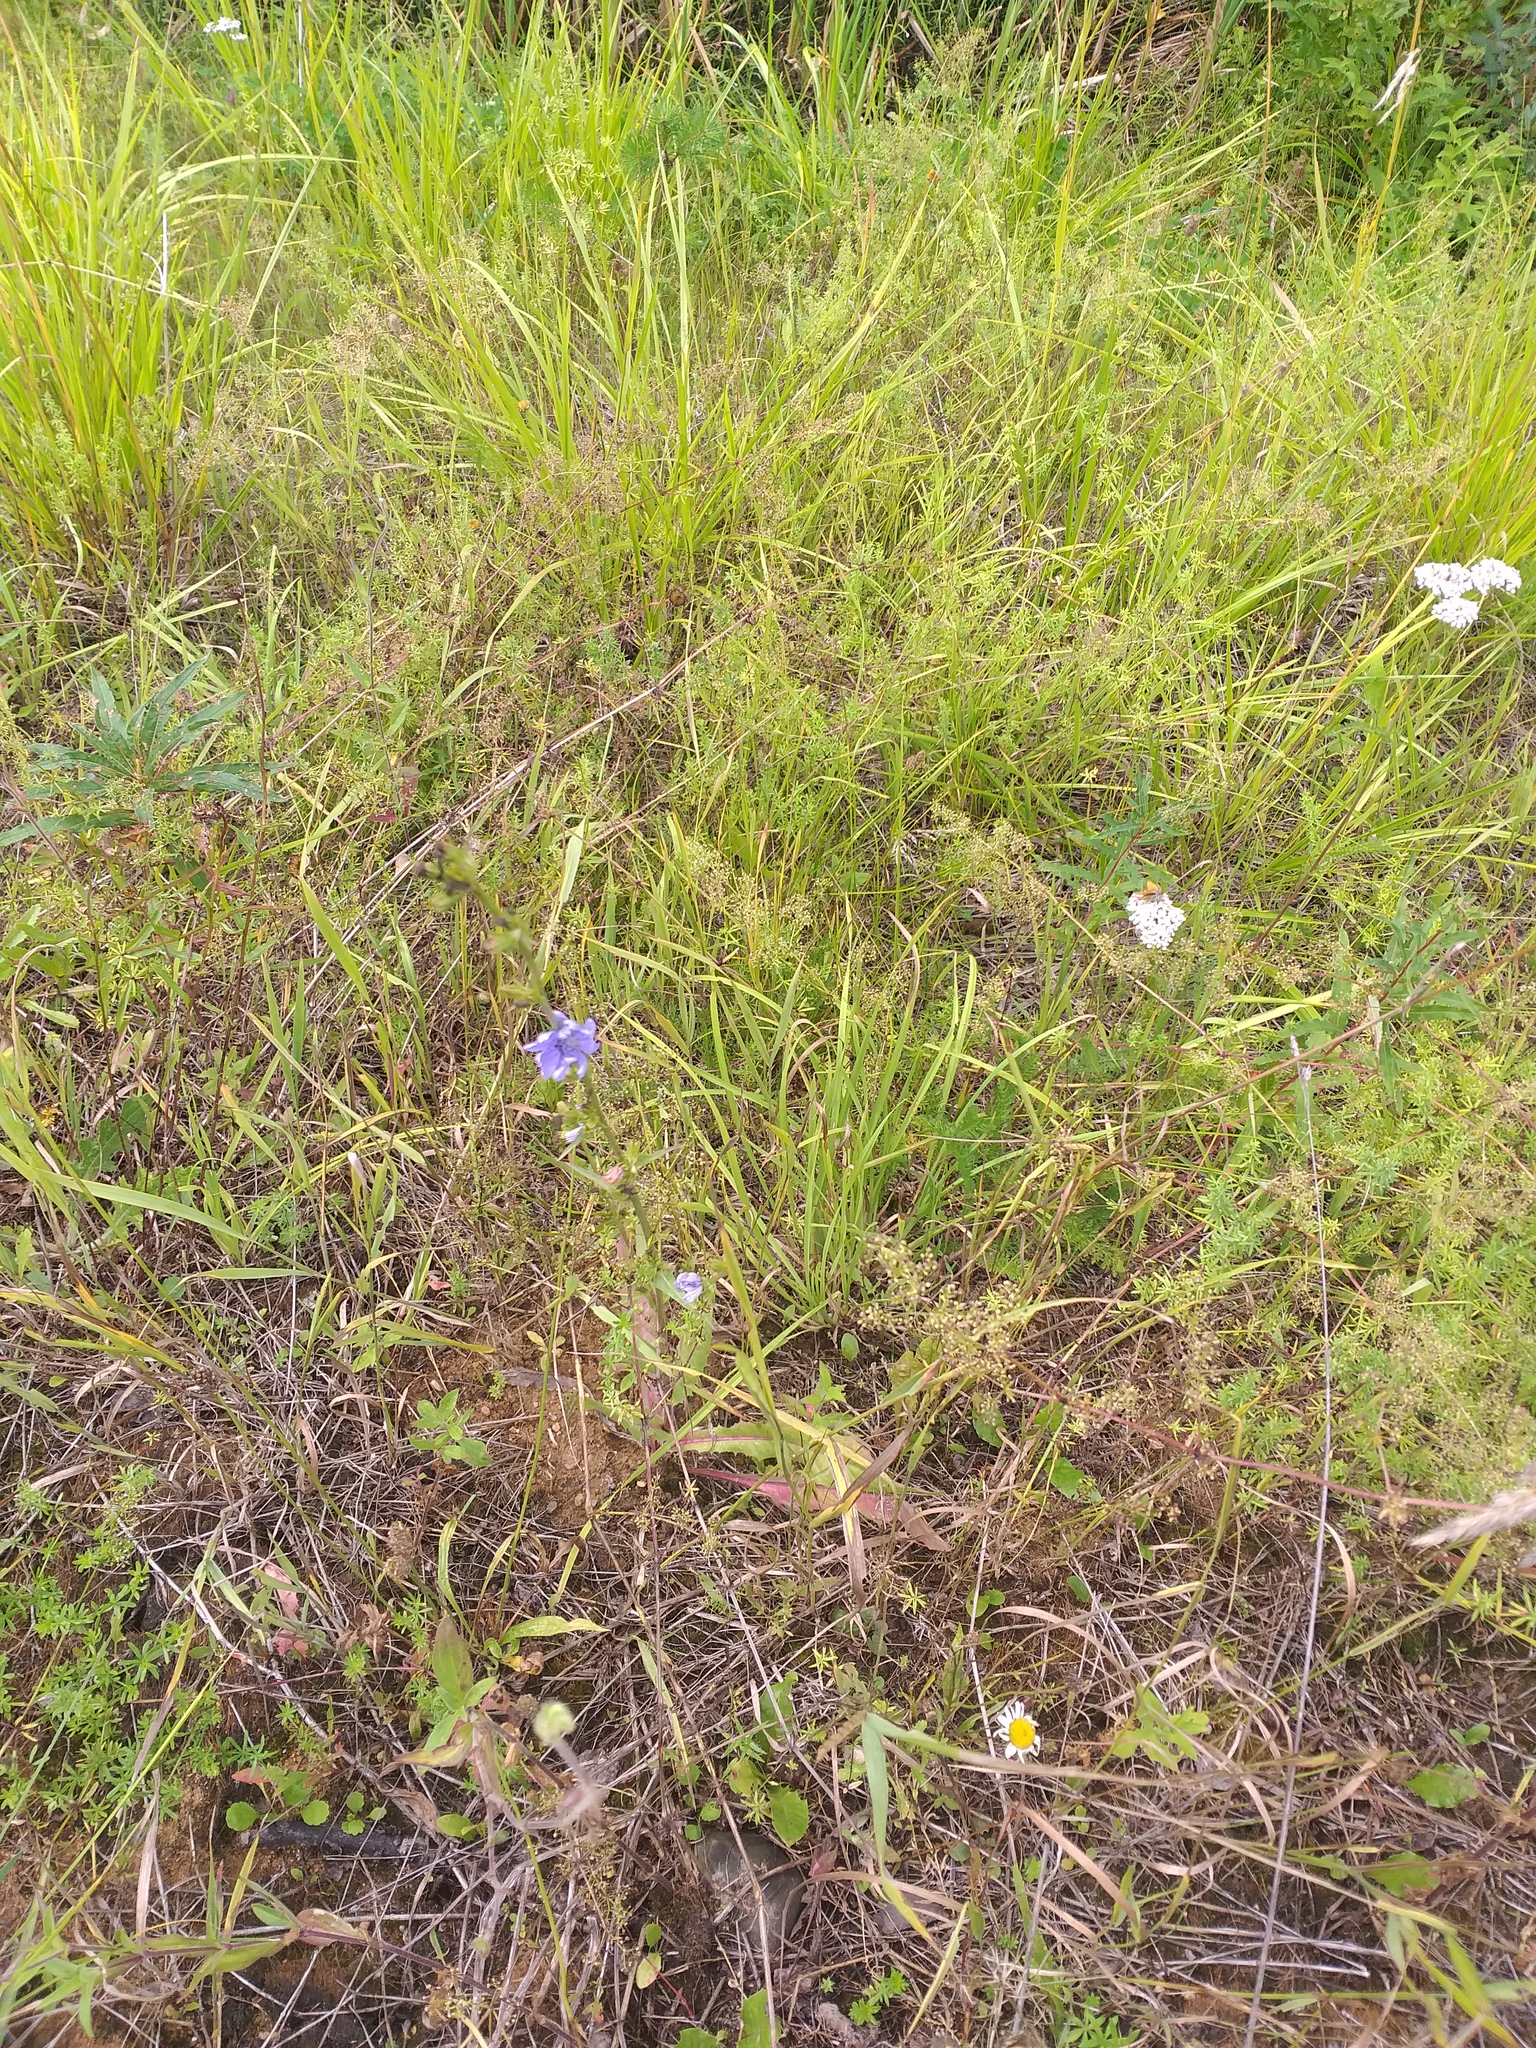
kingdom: Plantae
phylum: Tracheophyta
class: Magnoliopsida
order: Asterales
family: Asteraceae
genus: Cichorium
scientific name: Cichorium intybus
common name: Chicory
